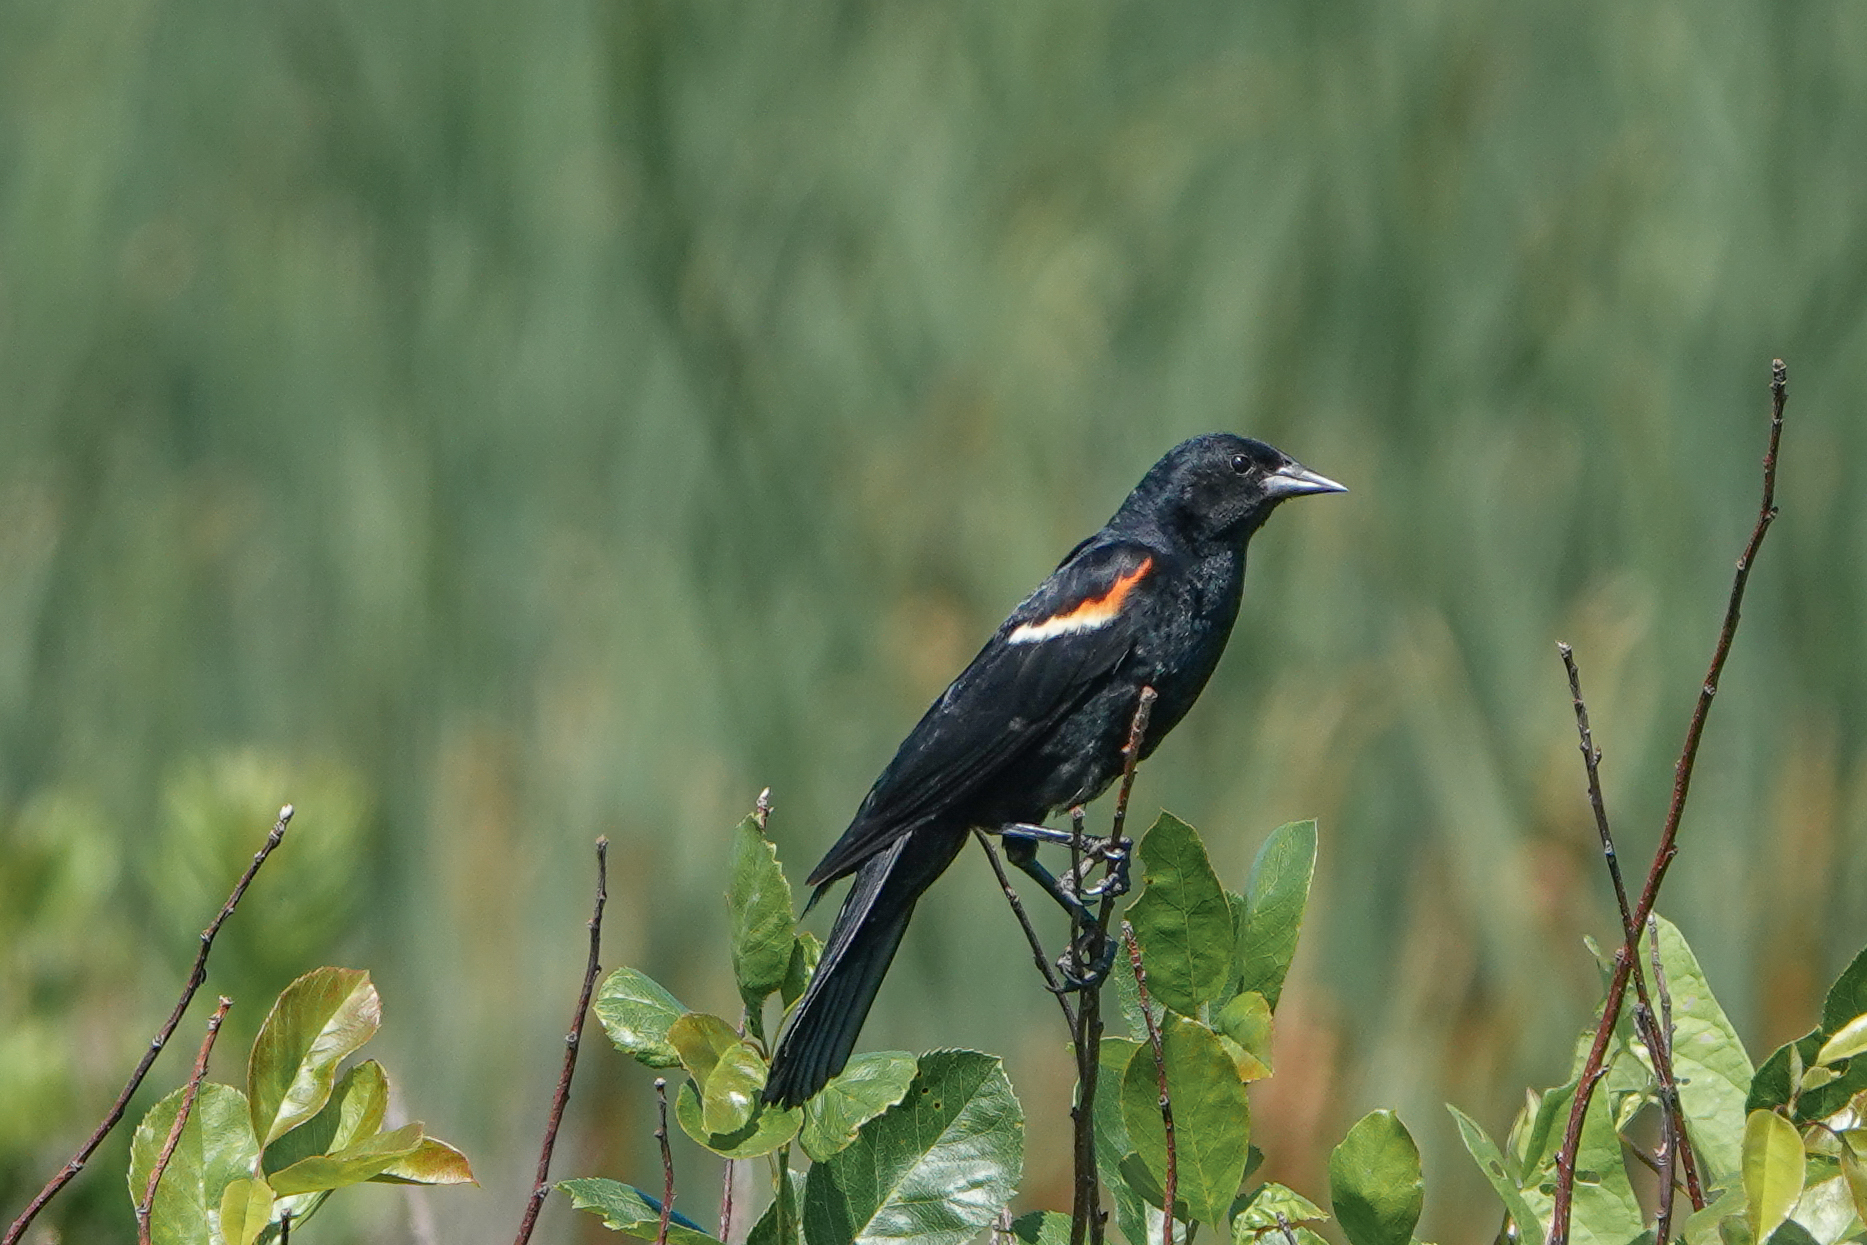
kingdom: Animalia
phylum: Chordata
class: Aves
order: Passeriformes
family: Icteridae
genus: Agelaius
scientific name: Agelaius phoeniceus
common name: Red-winged blackbird
